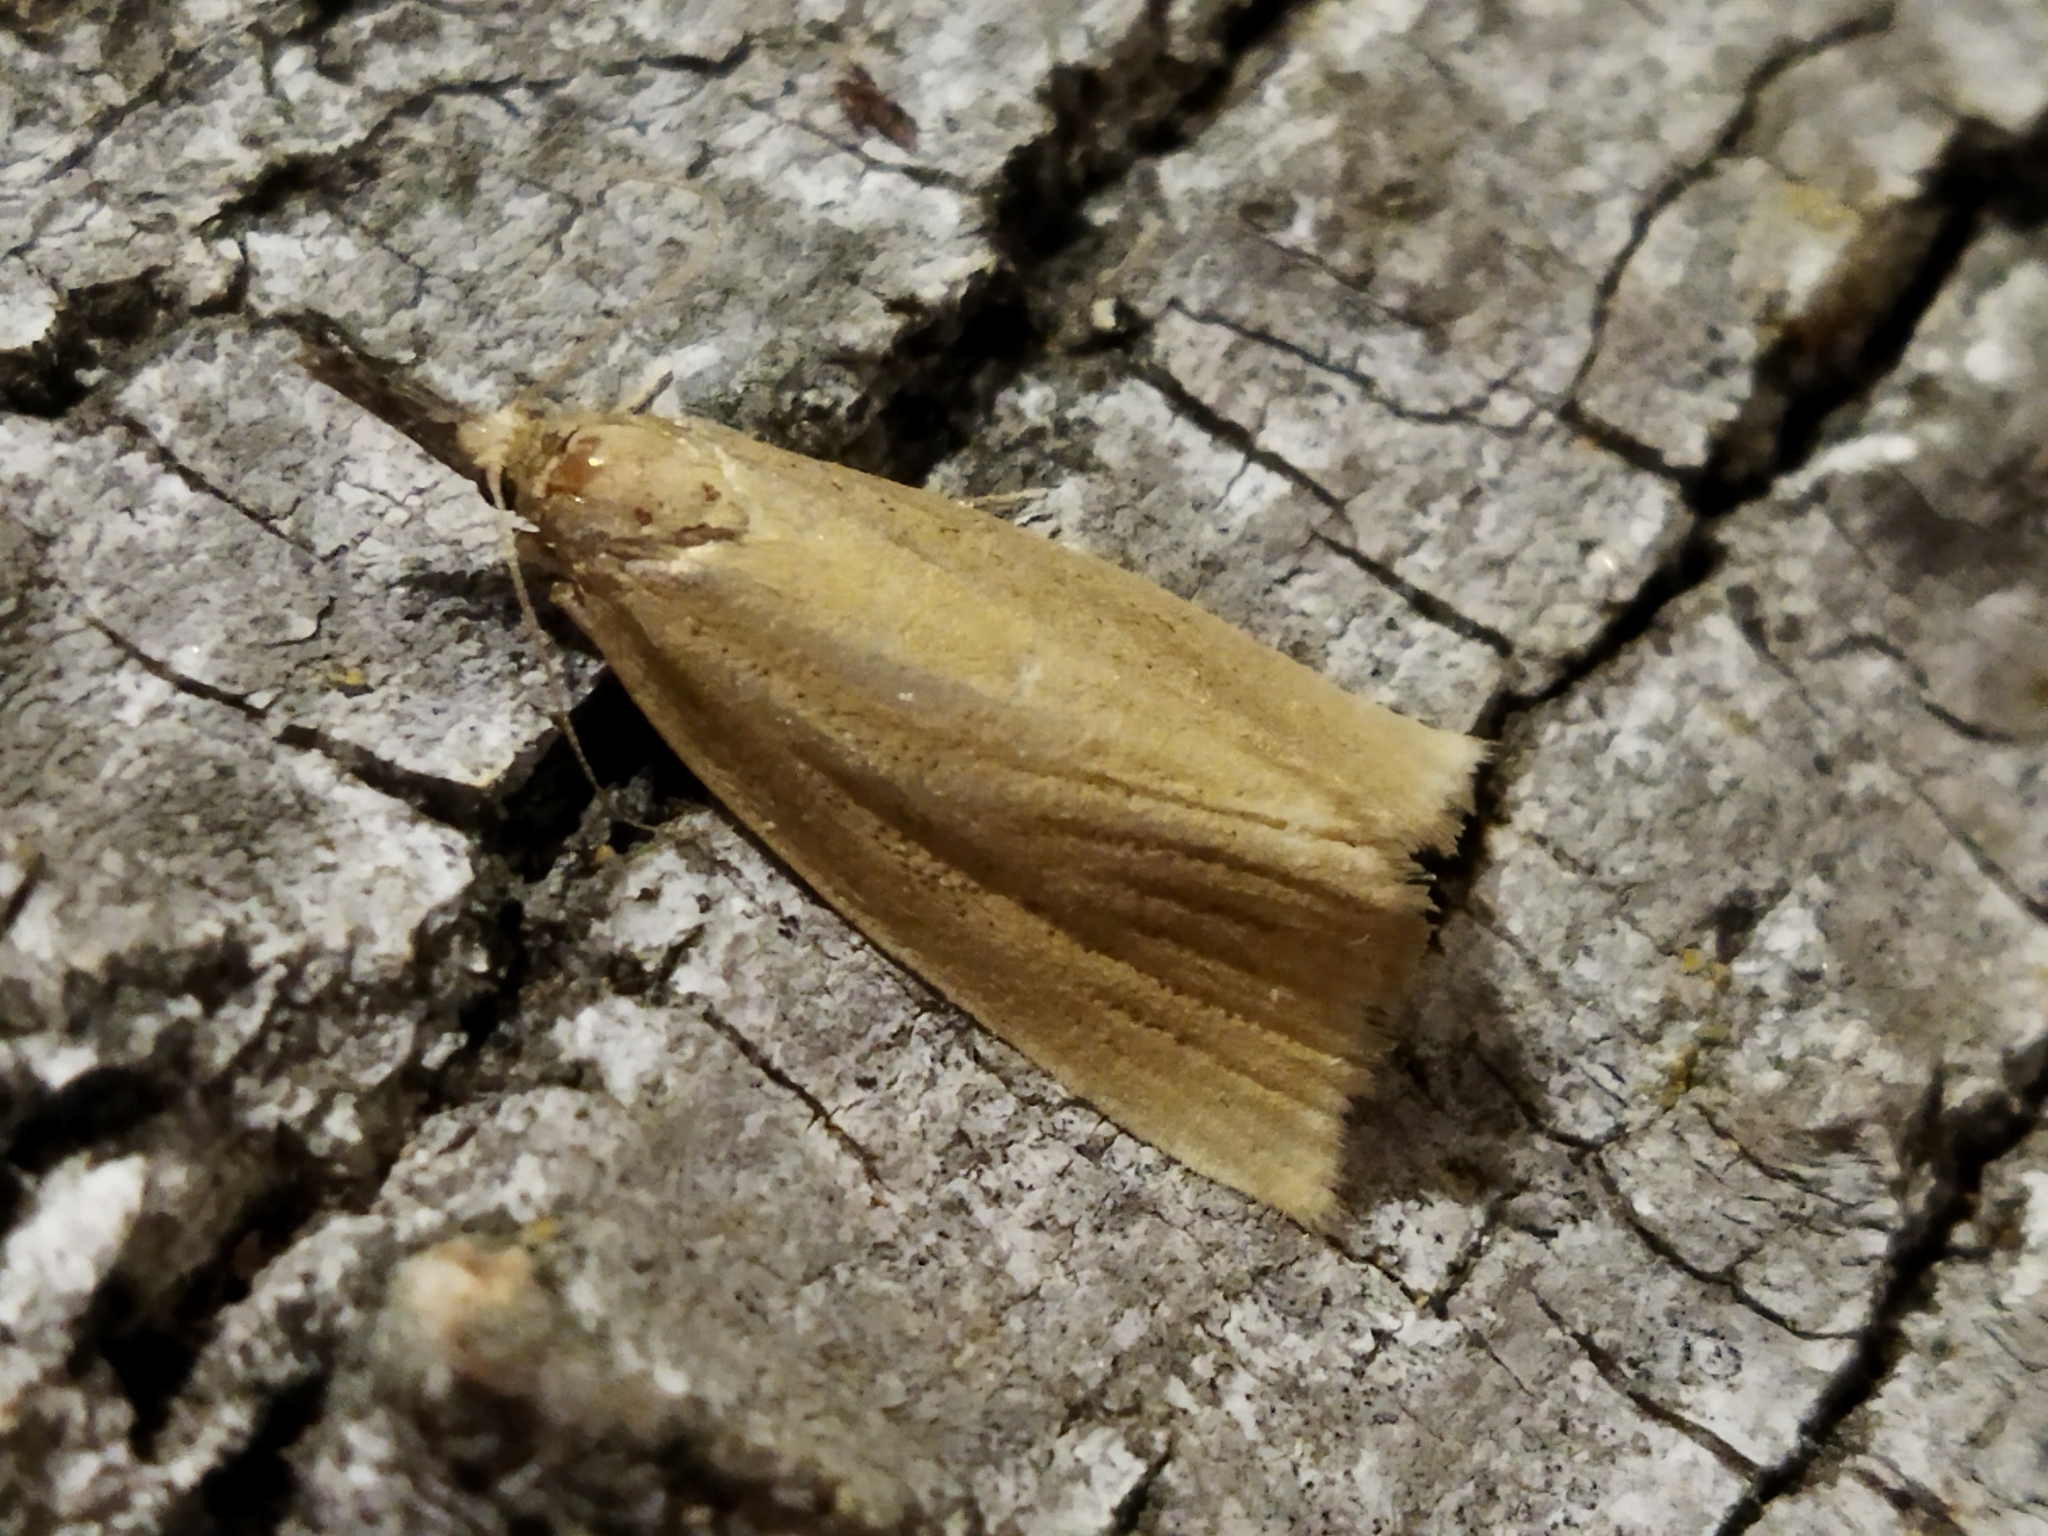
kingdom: Animalia
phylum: Arthropoda
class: Insecta
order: Lepidoptera
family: Crambidae
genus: Chilo
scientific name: Chilo phragmitella
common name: Reed veneer
